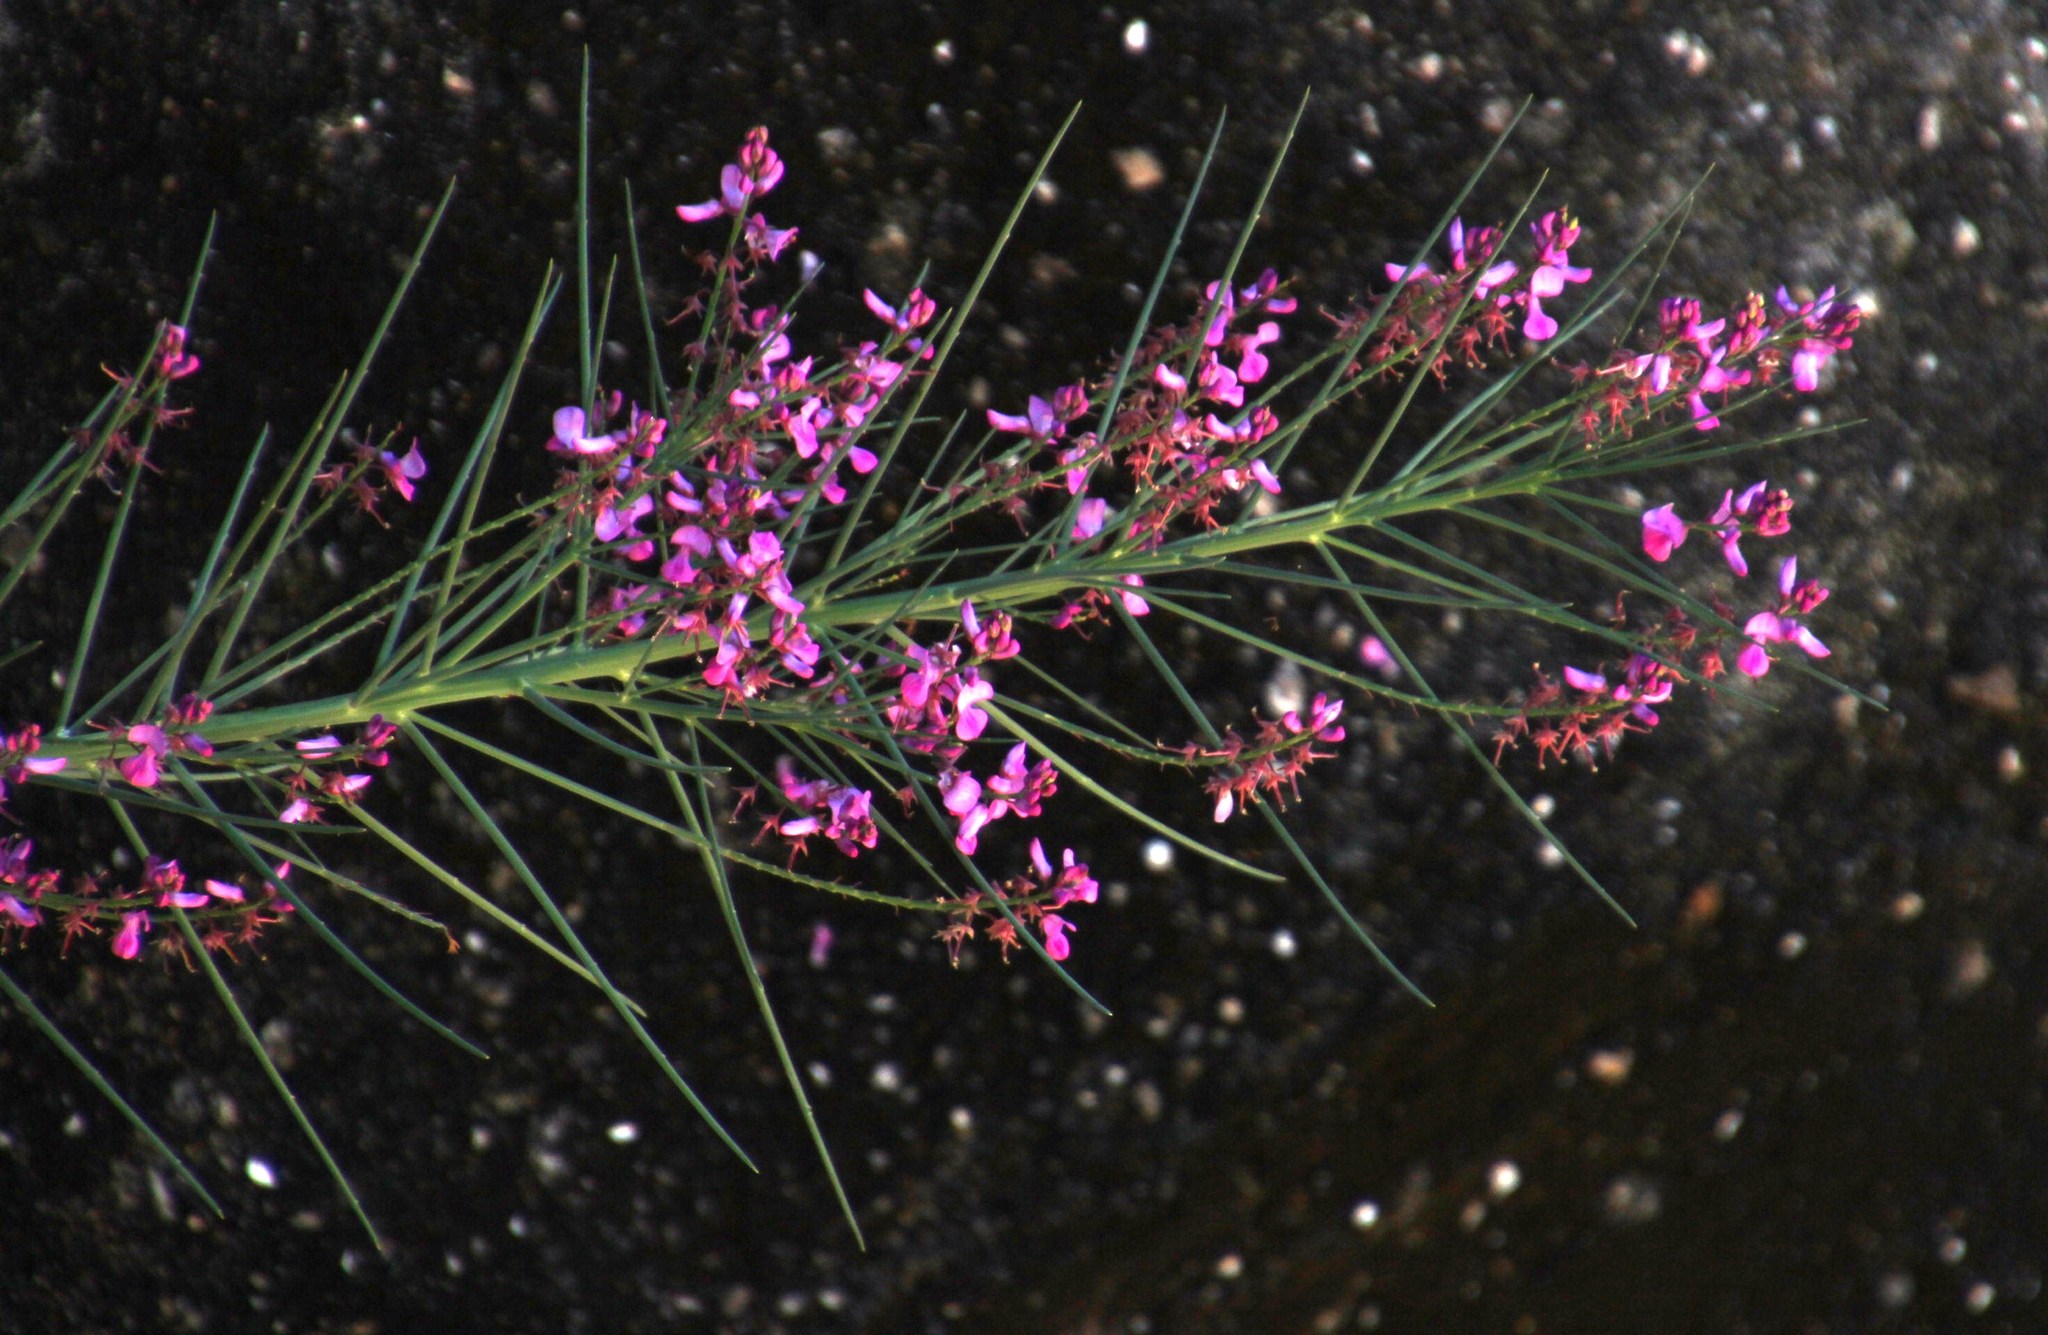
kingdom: Plantae
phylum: Tracheophyta
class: Magnoliopsida
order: Fabales
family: Fabaceae
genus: Indigofera
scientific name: Indigofera filifolia
